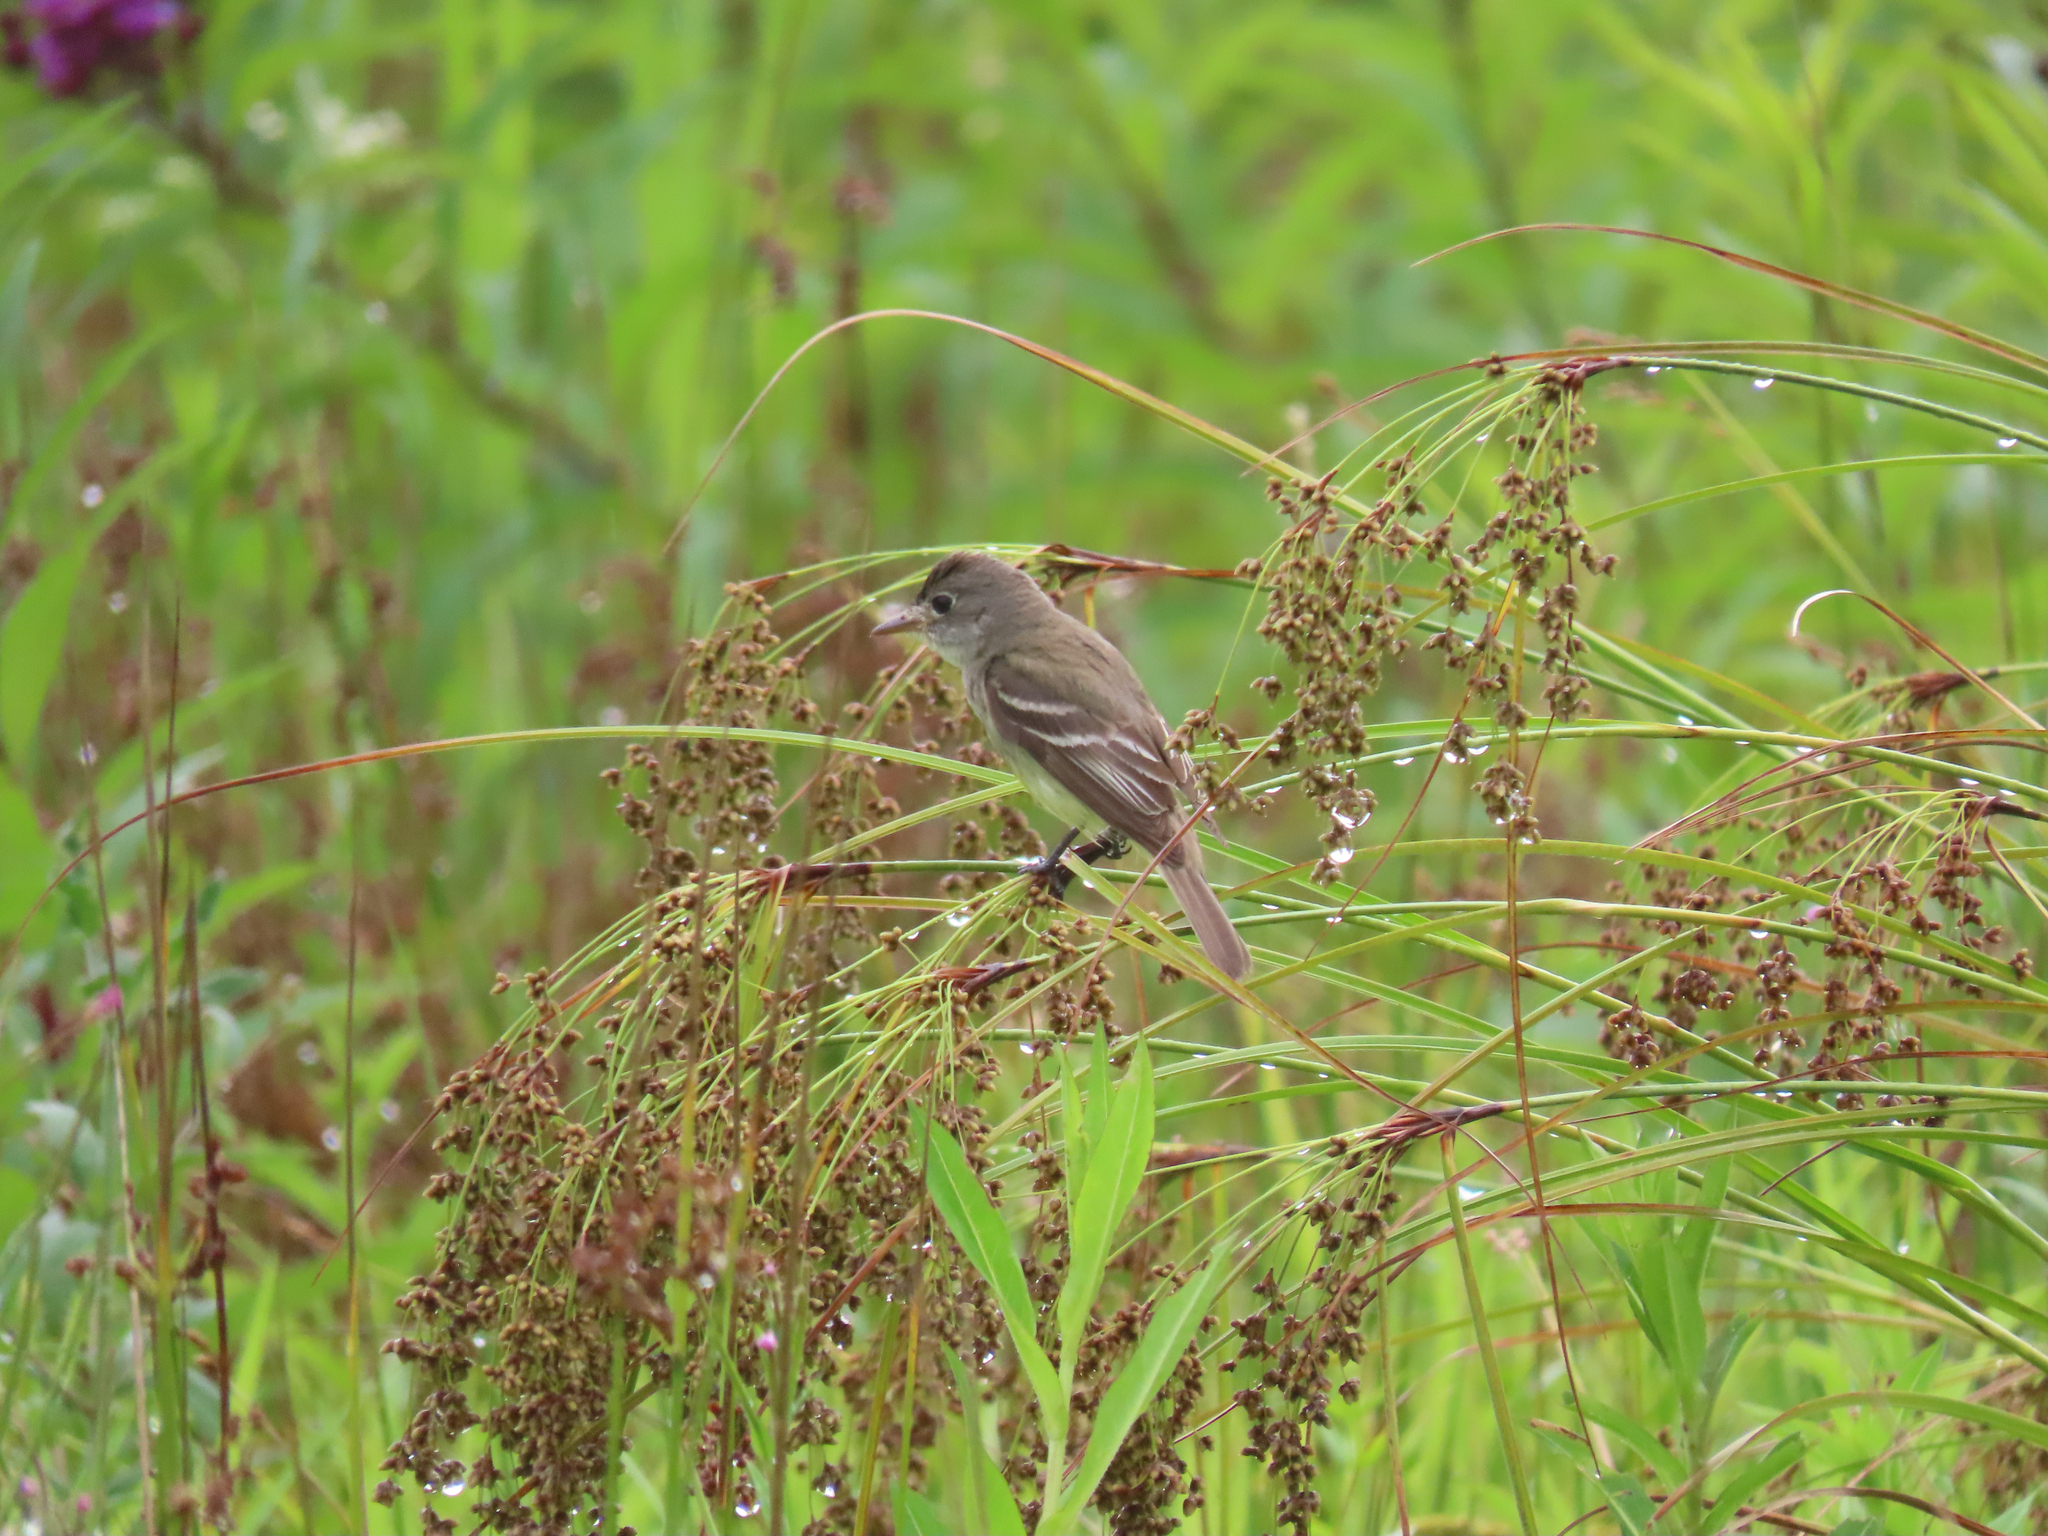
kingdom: Animalia
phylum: Chordata
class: Aves
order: Passeriformes
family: Tyrannidae
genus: Empidonax
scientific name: Empidonax traillii
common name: Willow flycatcher
